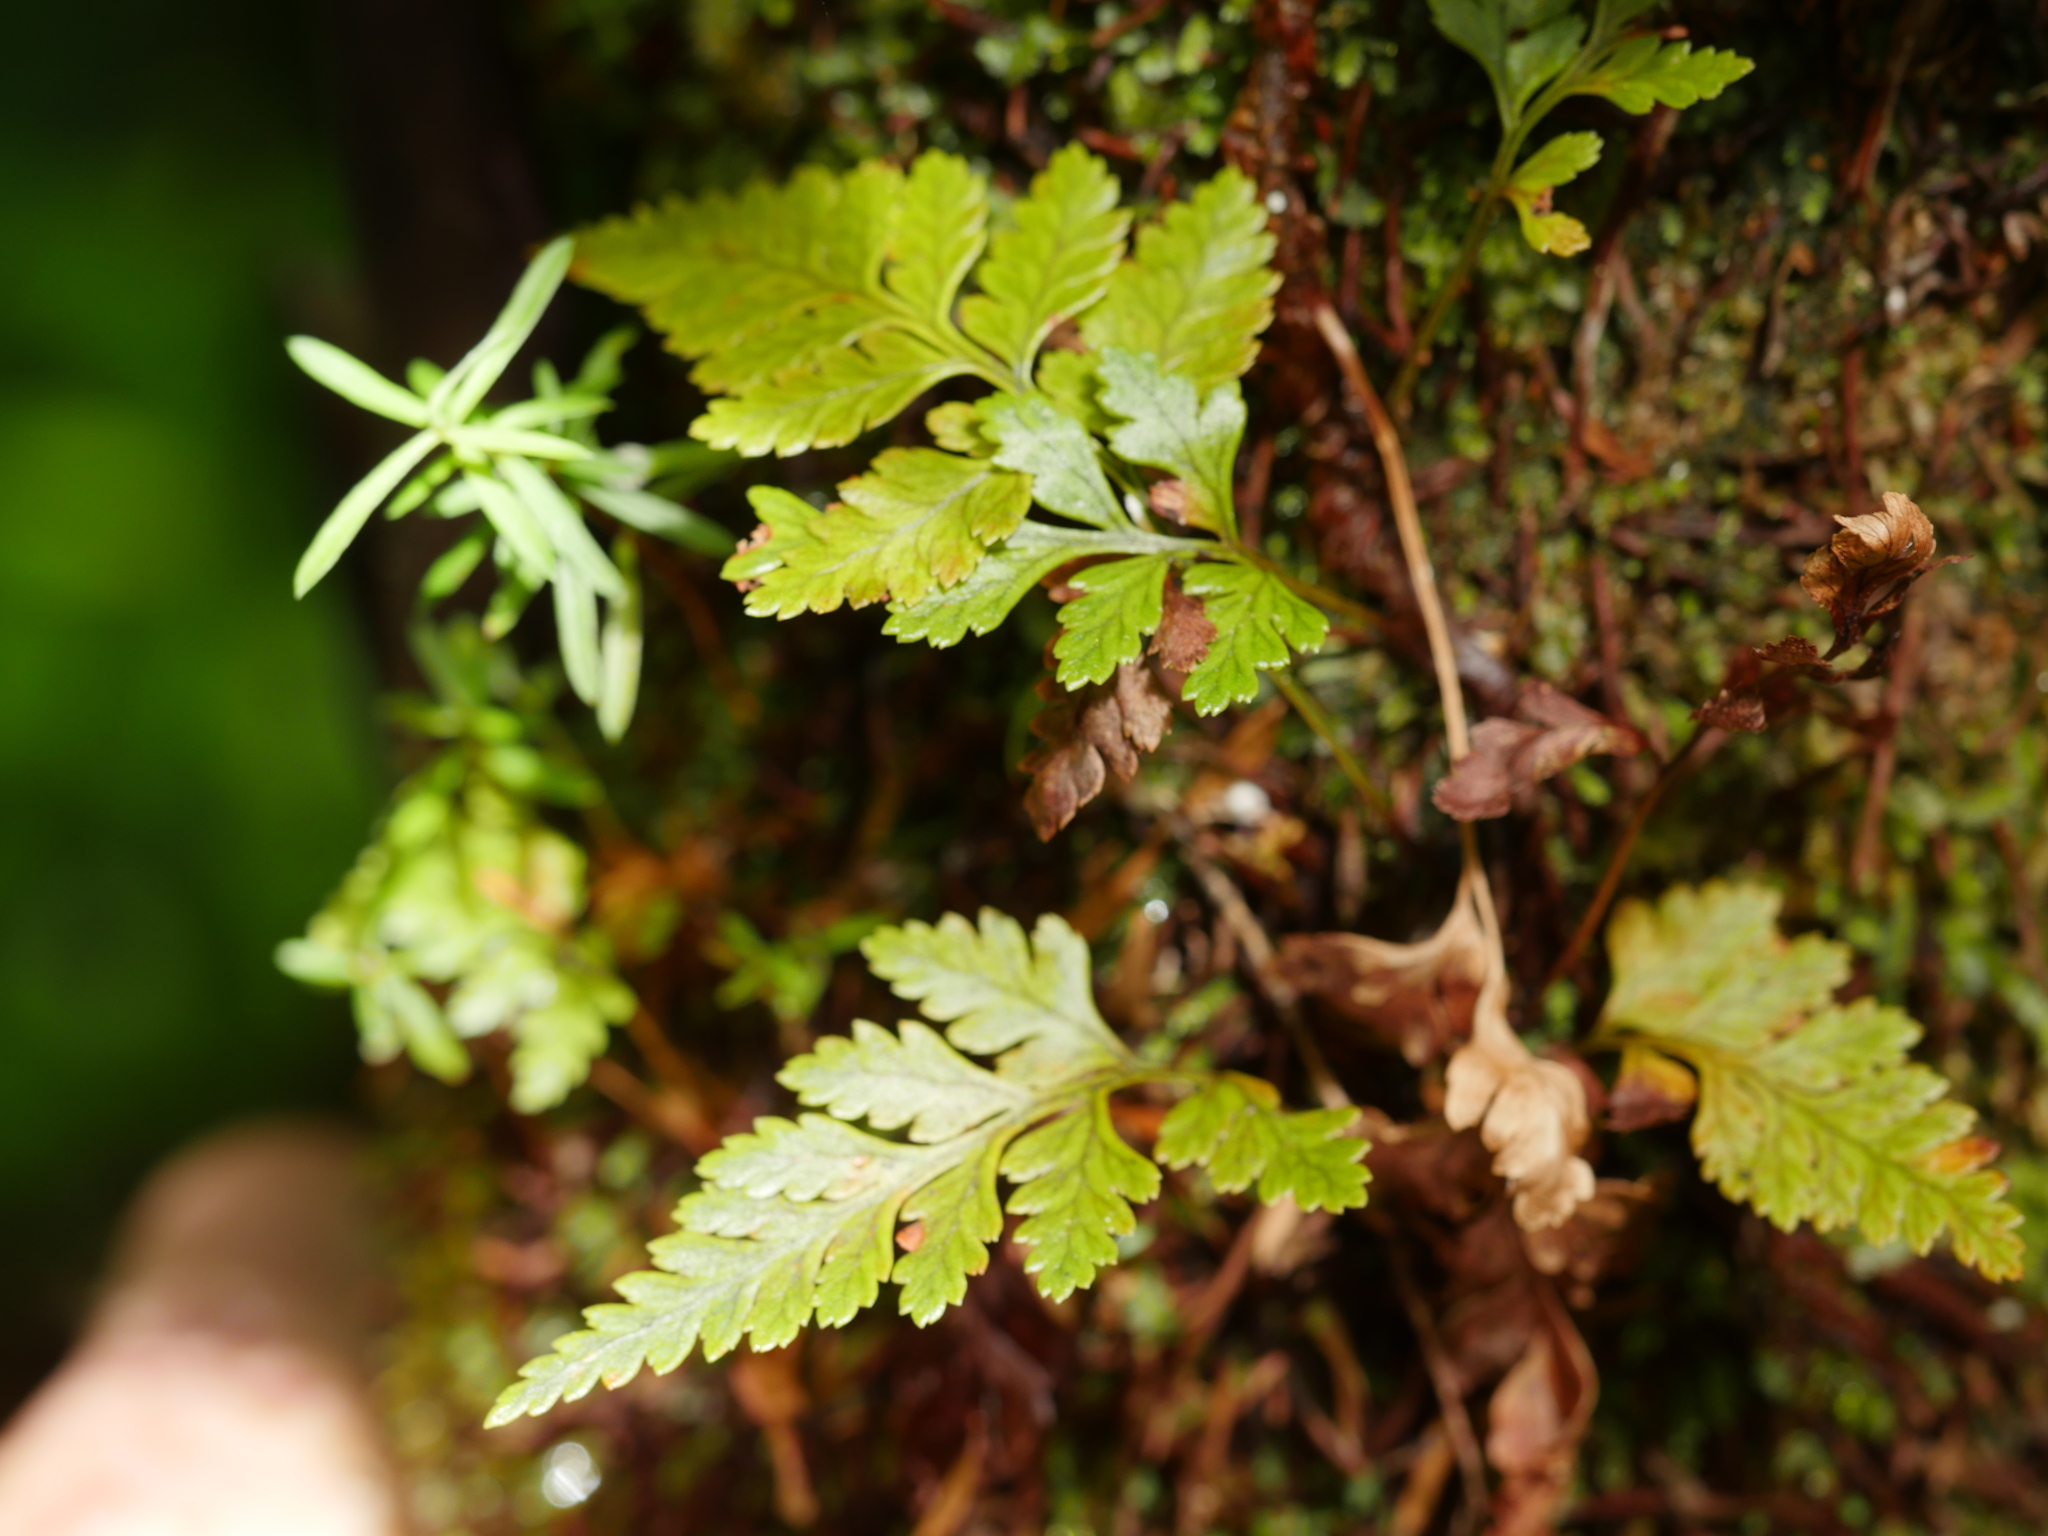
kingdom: Plantae
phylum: Tracheophyta
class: Polypodiopsida
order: Polypodiales
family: Dryopteridaceae
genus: Rumohra
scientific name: Rumohra adiantiformis
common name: Leather fern
